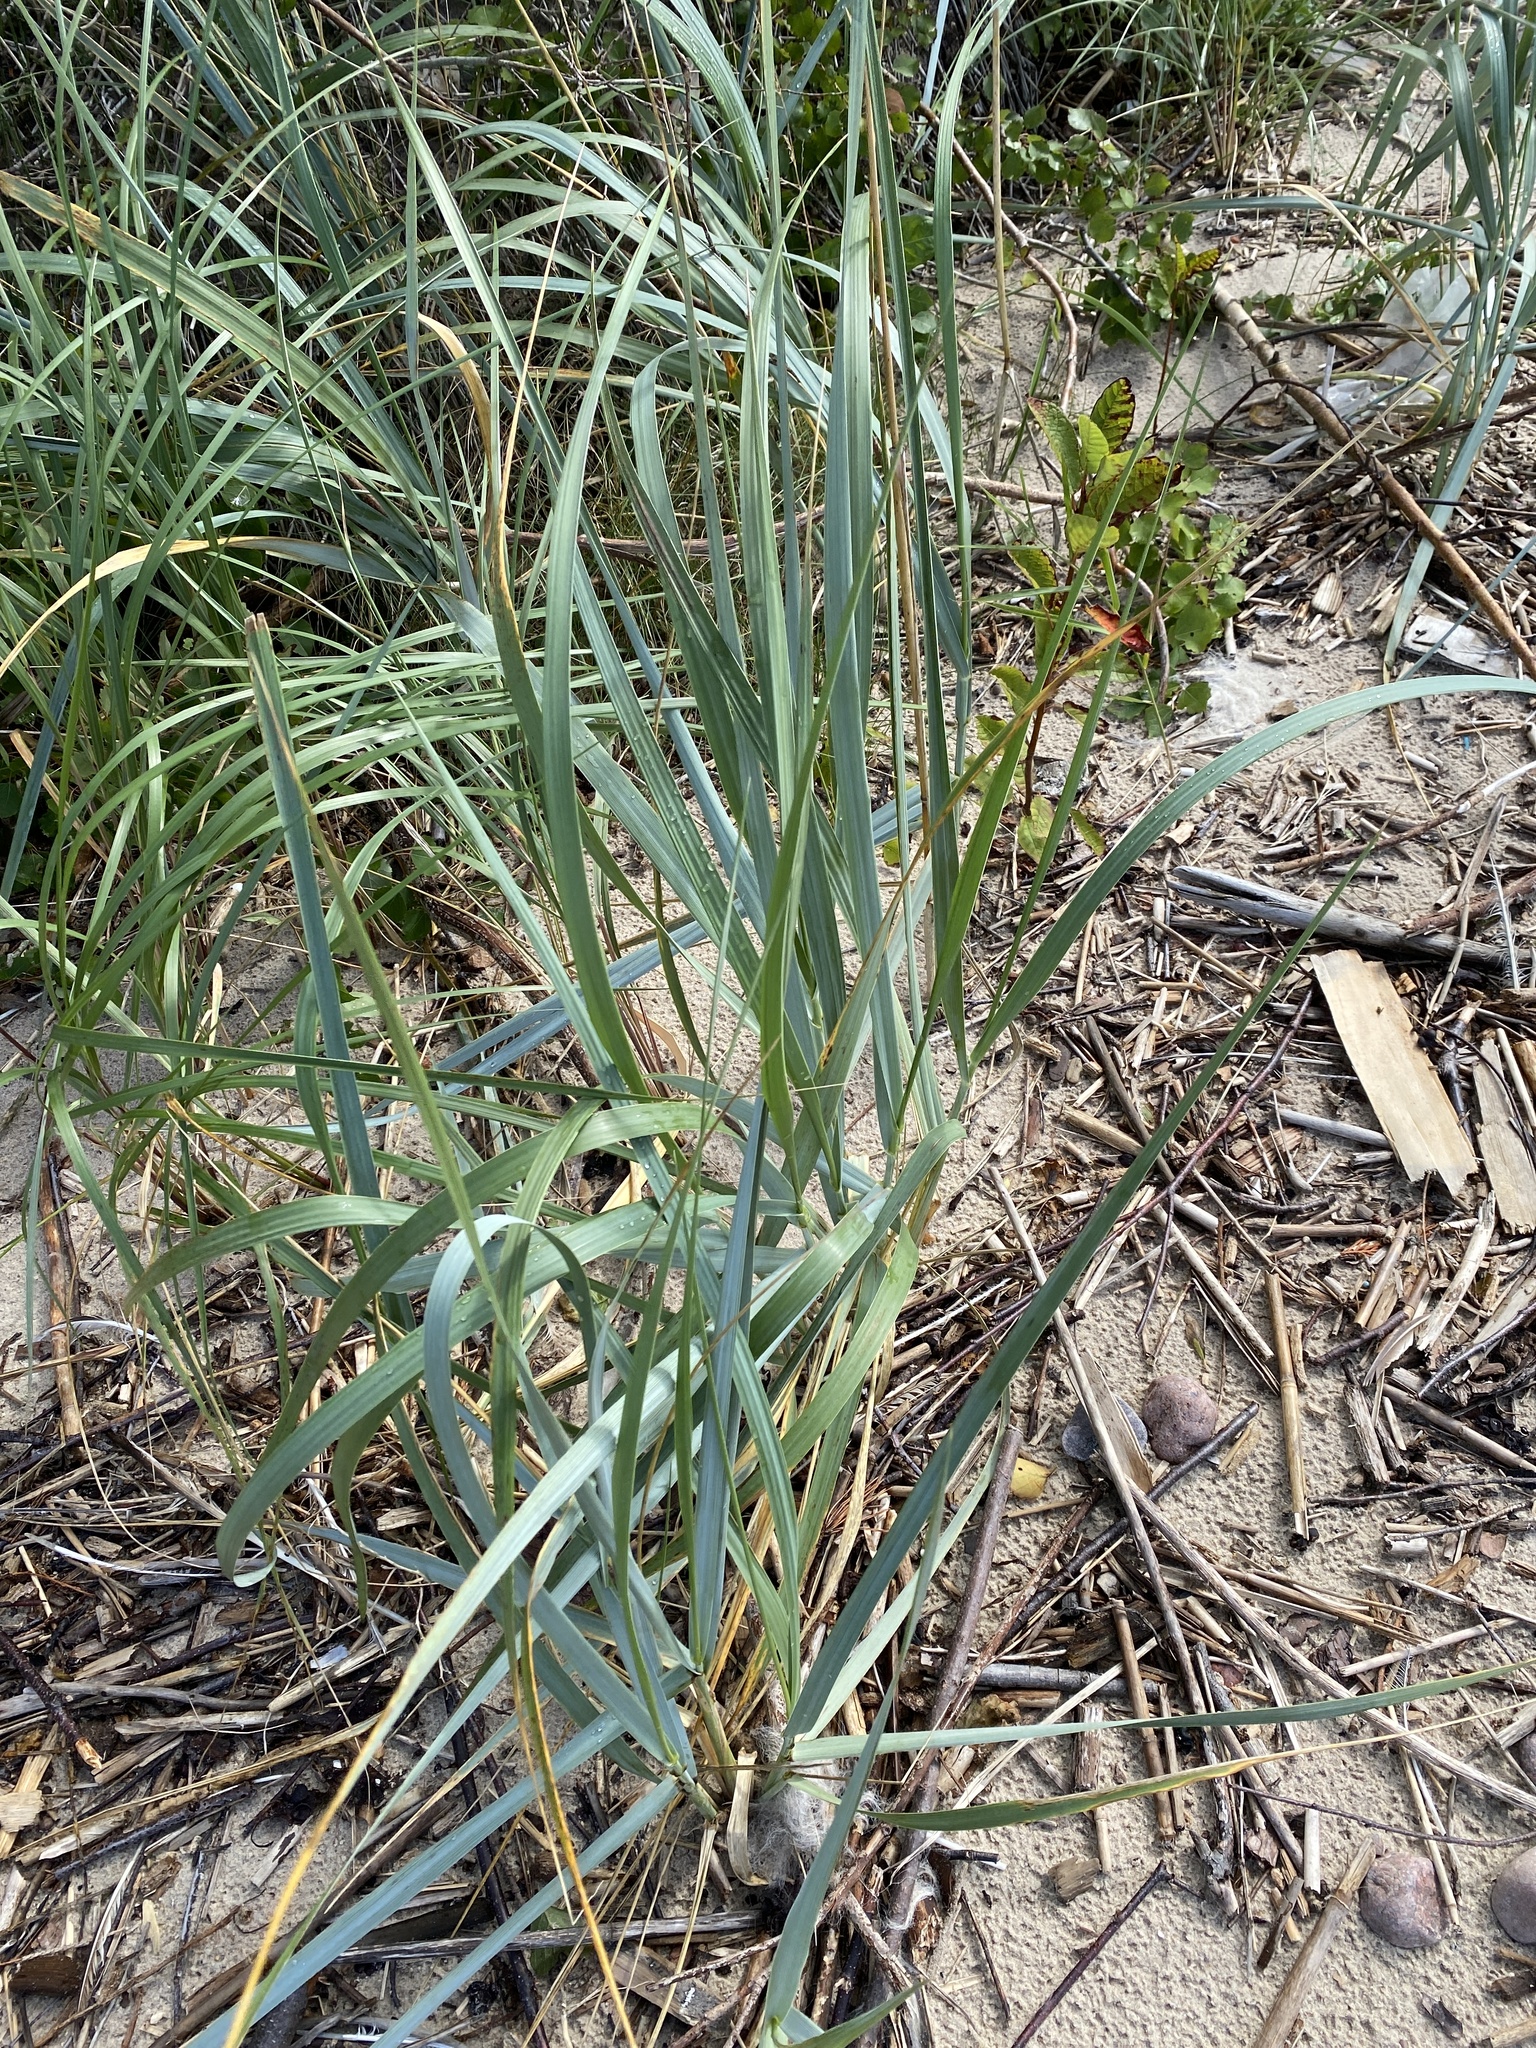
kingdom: Plantae
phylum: Tracheophyta
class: Liliopsida
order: Poales
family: Poaceae
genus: Leymus
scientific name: Leymus arenarius
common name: Lyme-grass
